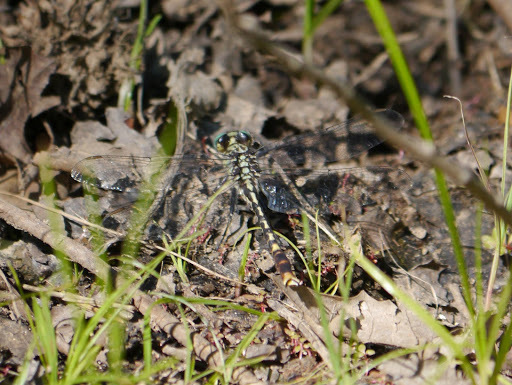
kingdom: Animalia
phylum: Arthropoda
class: Insecta
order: Odonata
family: Gomphidae
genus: Arigomphus
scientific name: Arigomphus villosipes
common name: Unicorn clubtail
